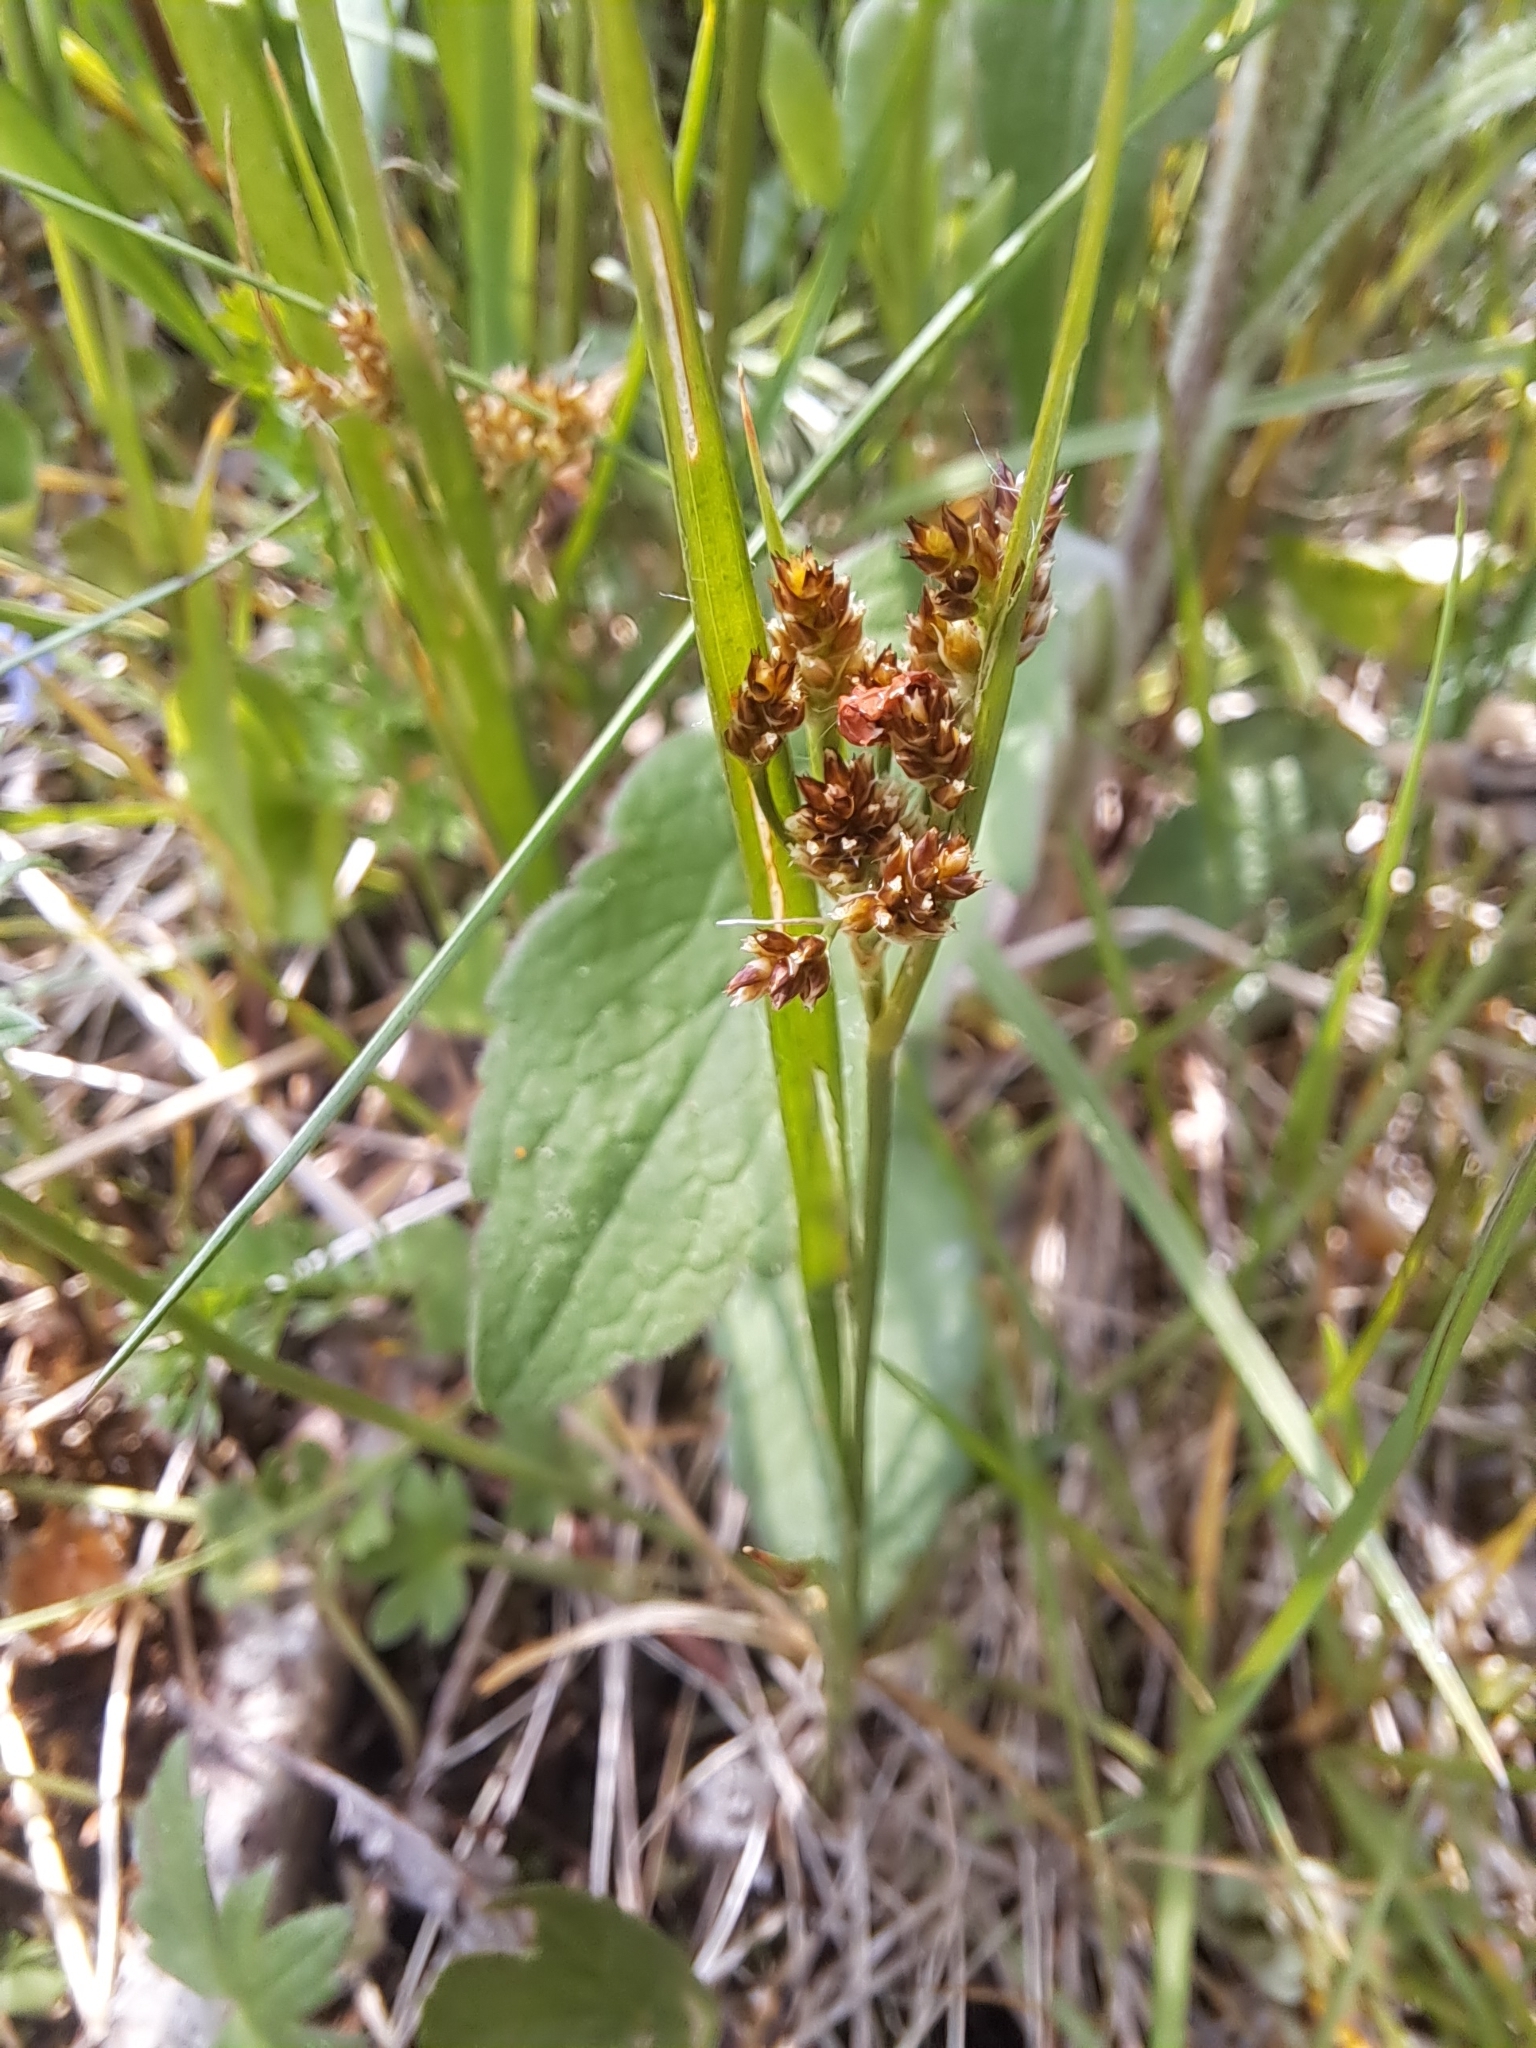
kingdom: Plantae
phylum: Tracheophyta
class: Liliopsida
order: Poales
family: Juncaceae
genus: Luzula
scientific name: Luzula multiflora
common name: Heath wood-rush
